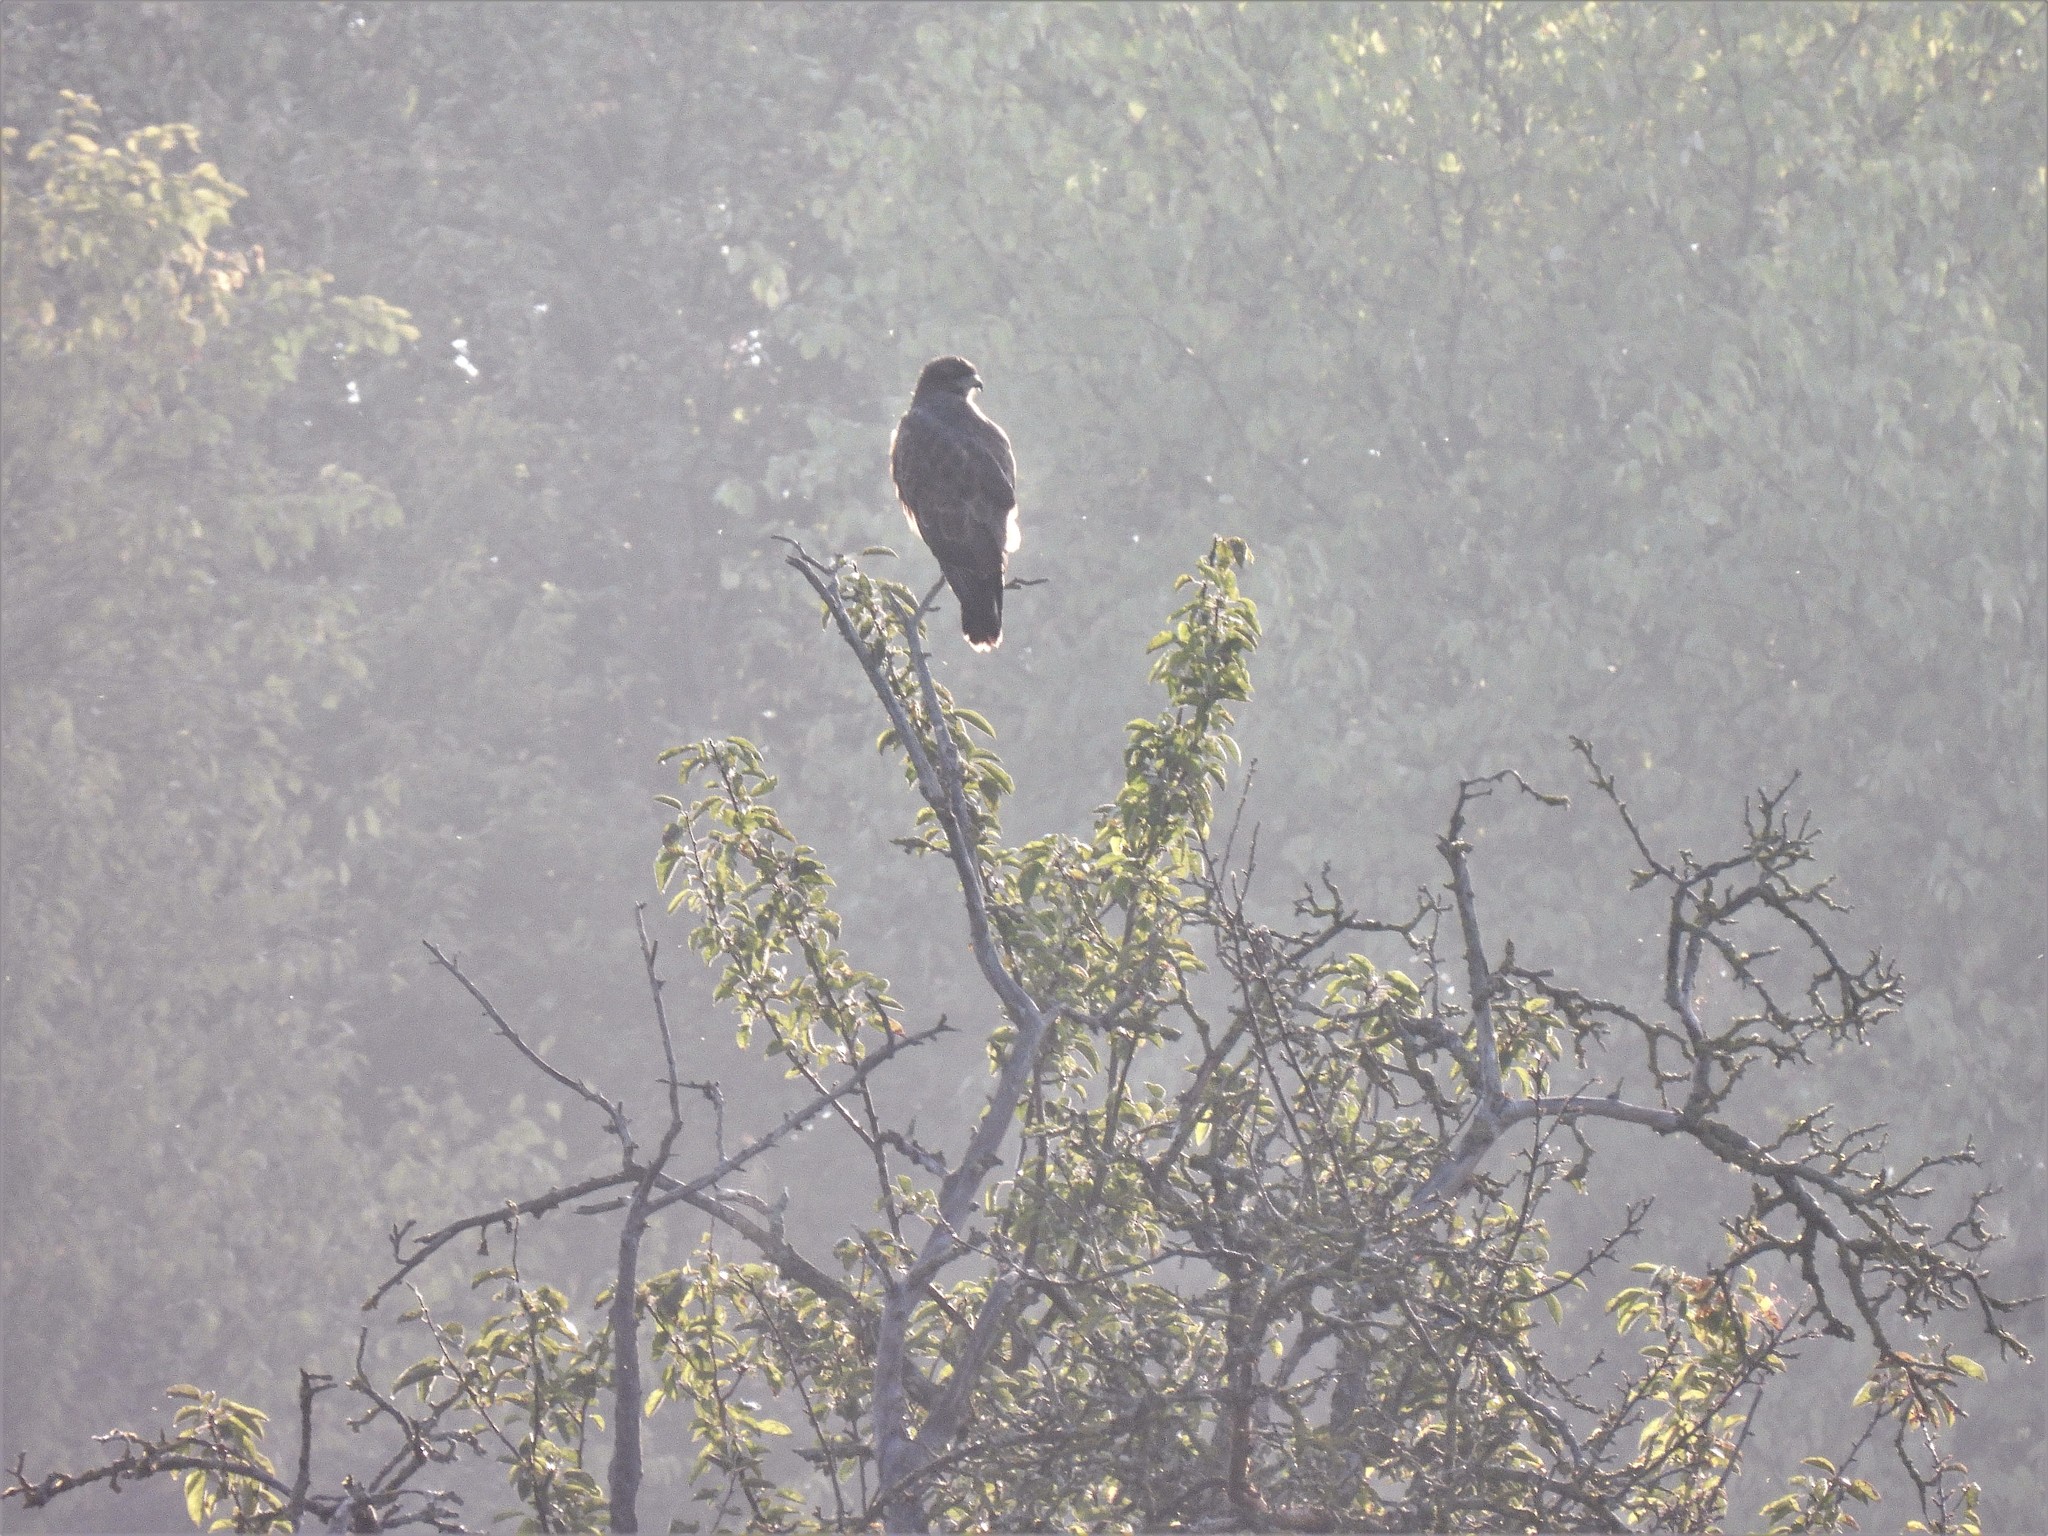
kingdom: Animalia
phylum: Chordata
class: Aves
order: Accipitriformes
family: Accipitridae
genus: Buteo
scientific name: Buteo buteo
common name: Common buzzard
